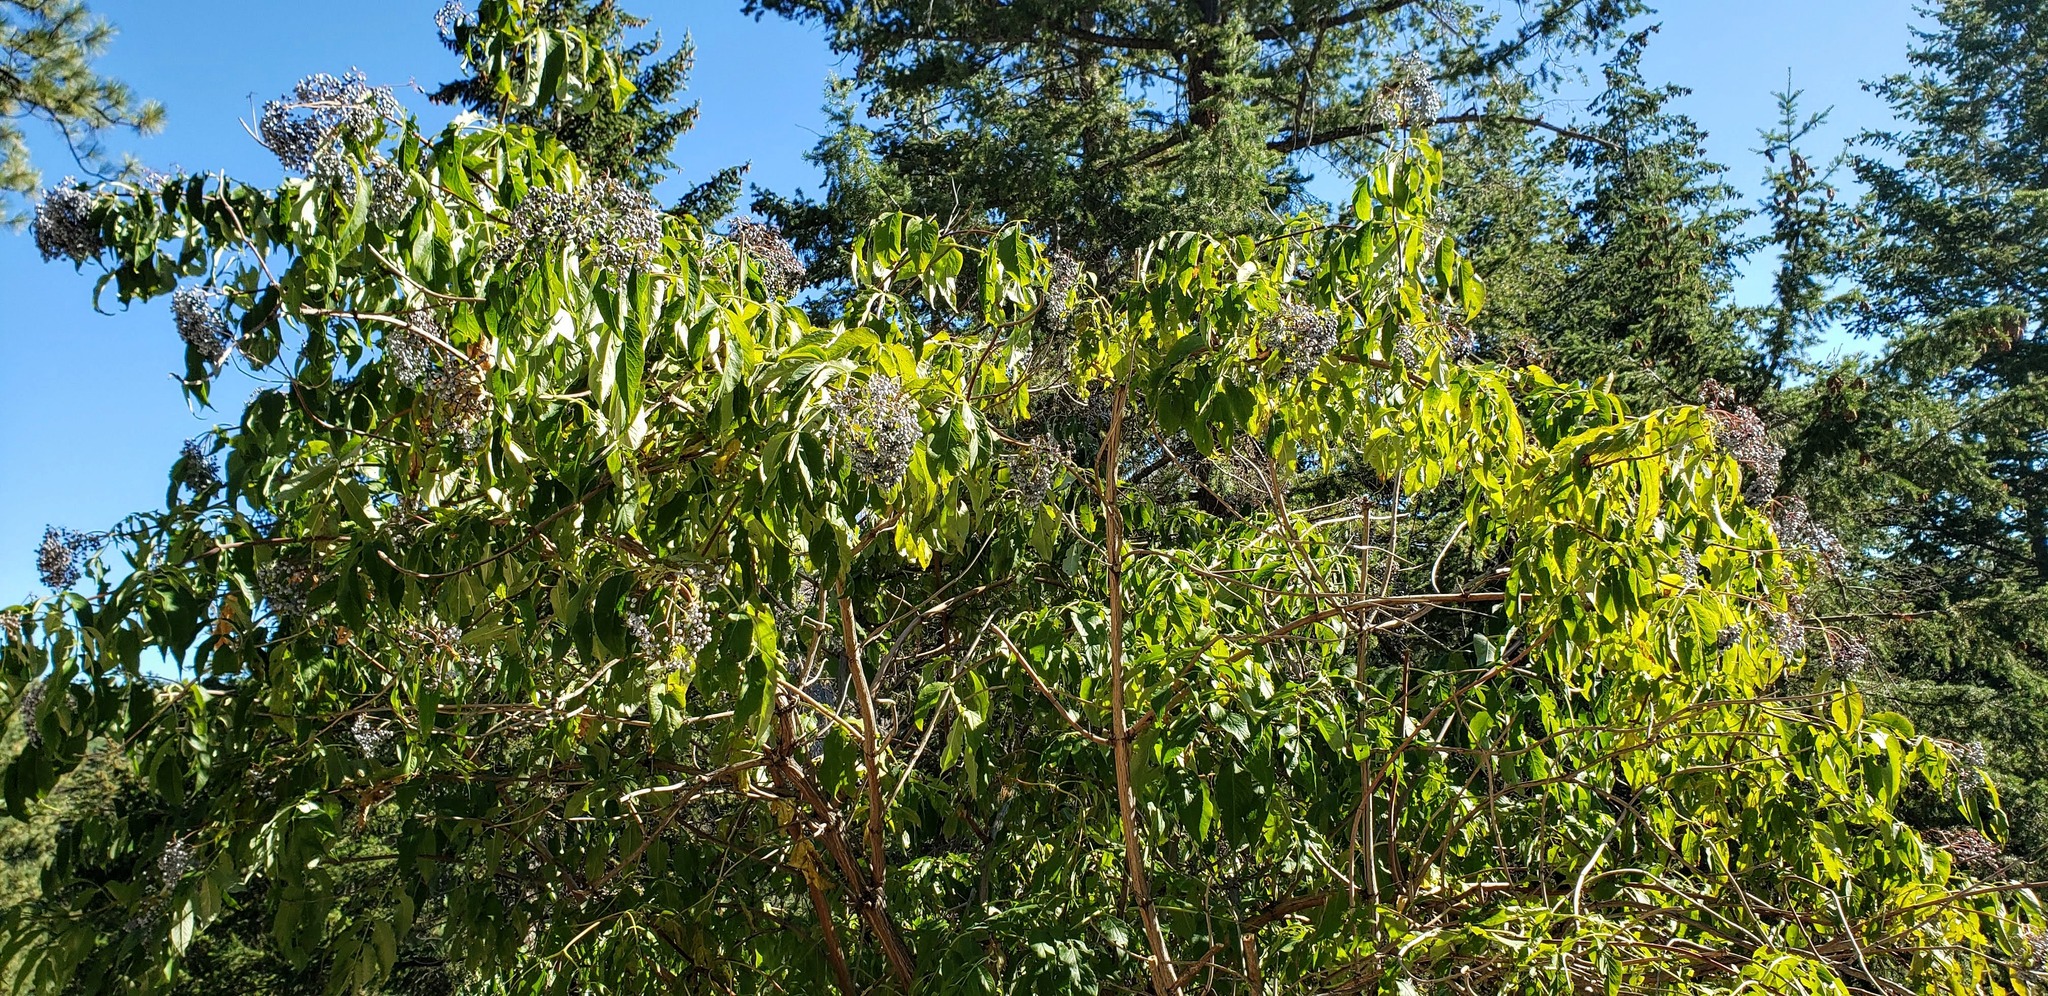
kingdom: Plantae
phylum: Tracheophyta
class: Magnoliopsida
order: Dipsacales
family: Viburnaceae
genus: Sambucus
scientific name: Sambucus cerulea
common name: Blue elder
